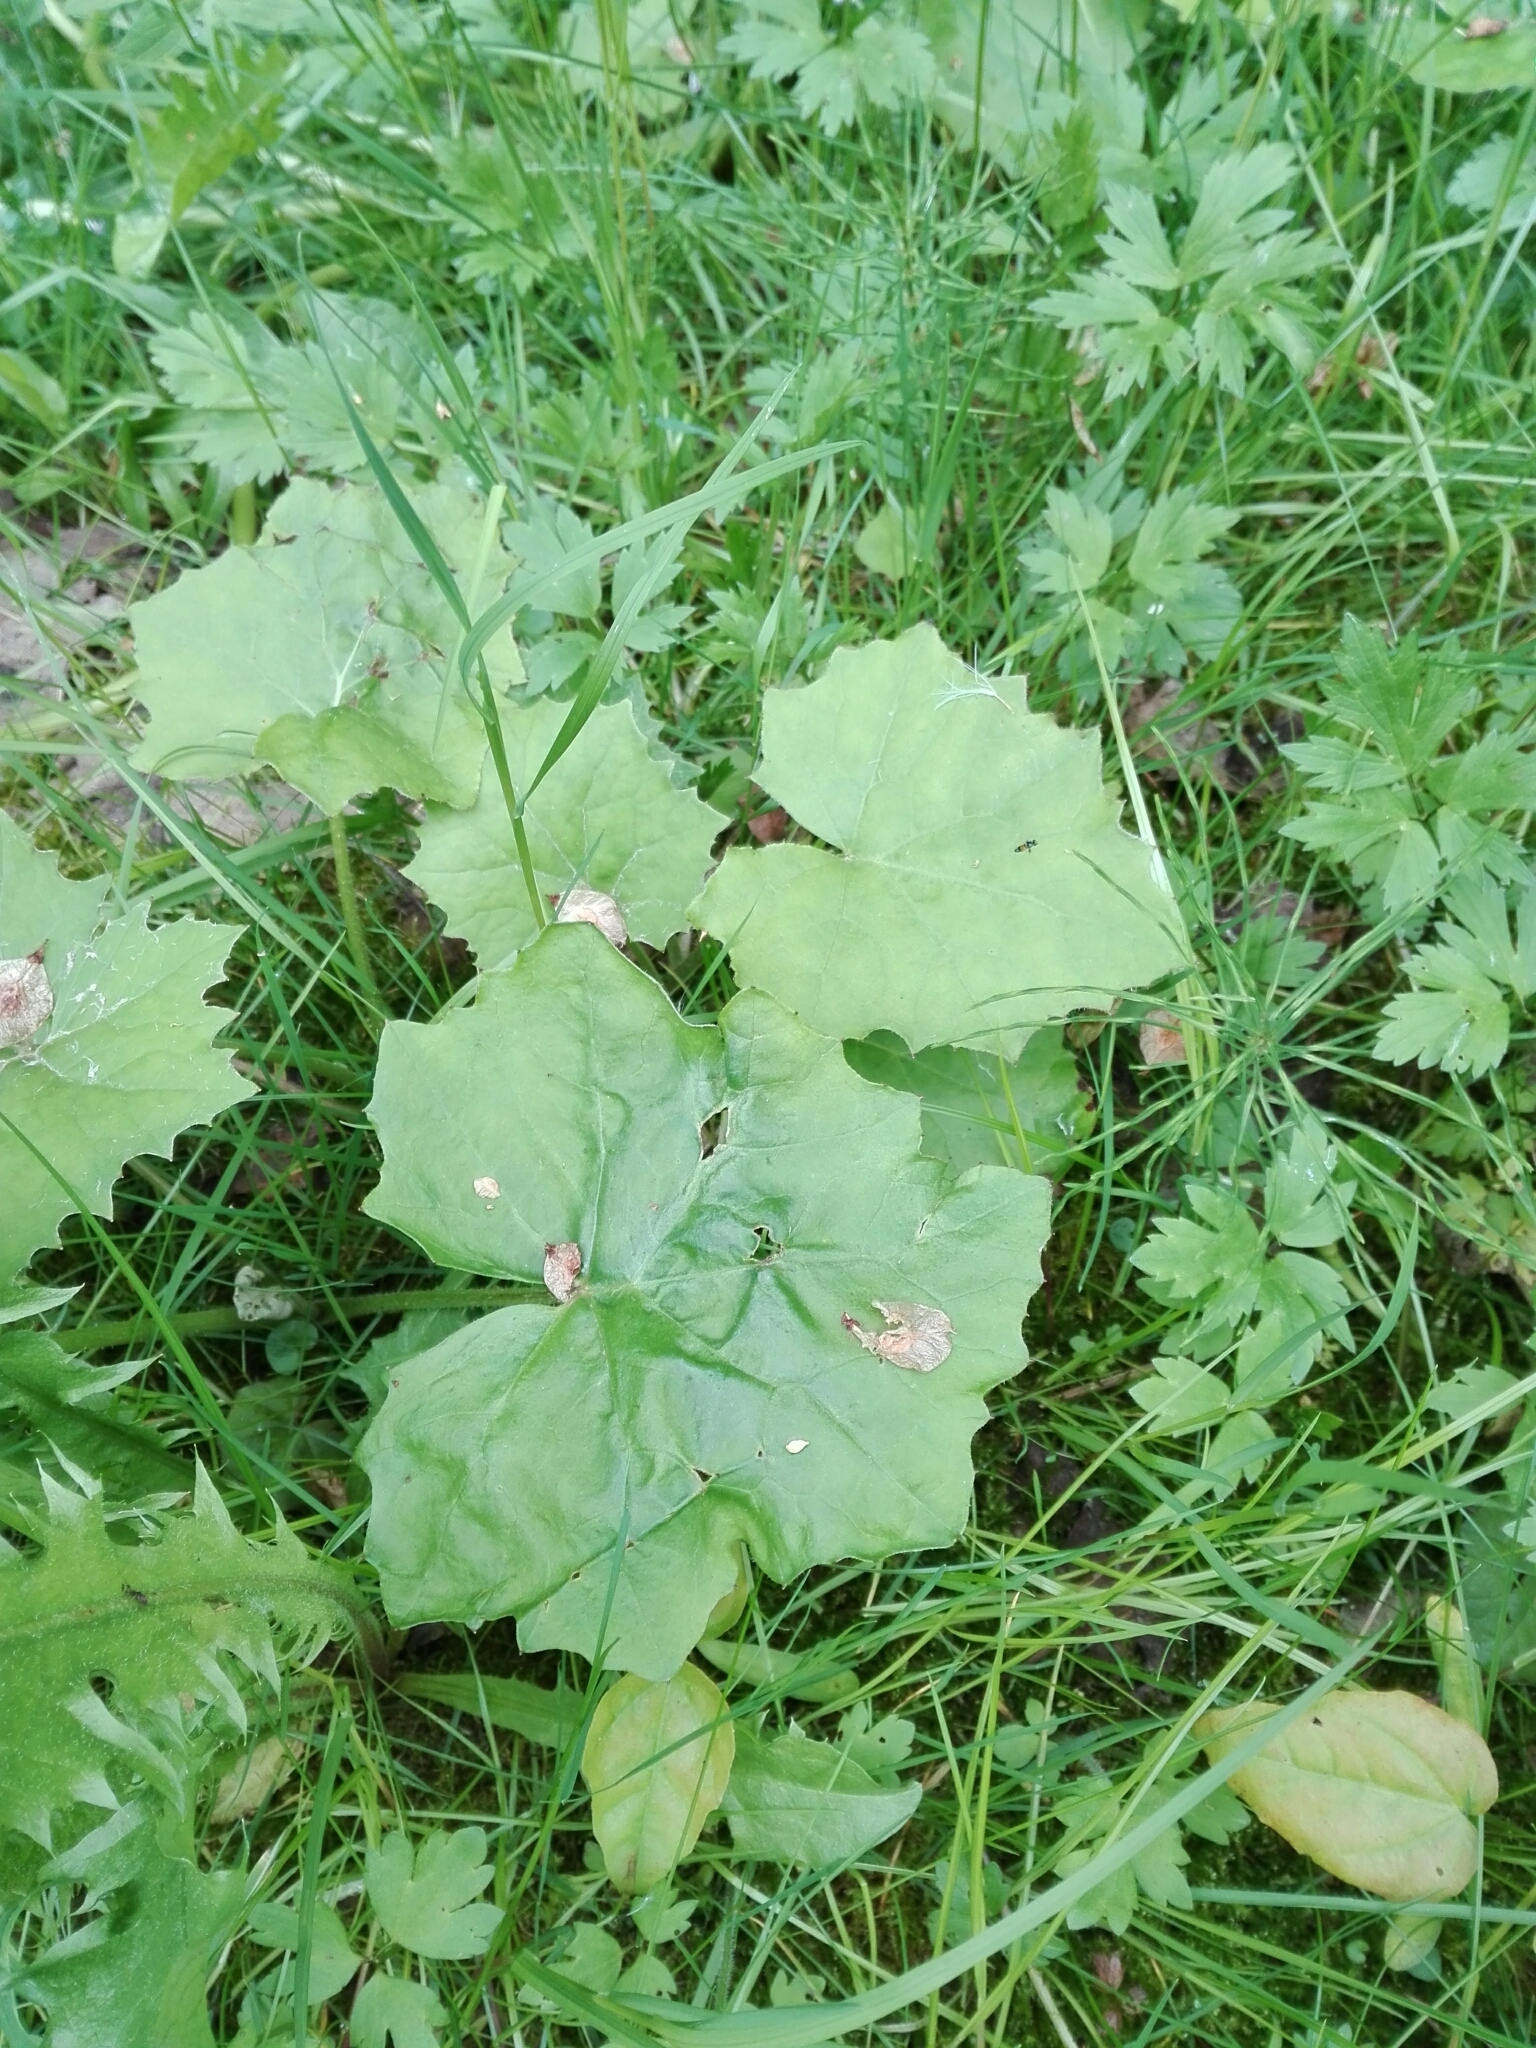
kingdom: Plantae
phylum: Tracheophyta
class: Magnoliopsida
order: Asterales
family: Asteraceae
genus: Tussilago
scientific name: Tussilago farfara
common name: Coltsfoot
